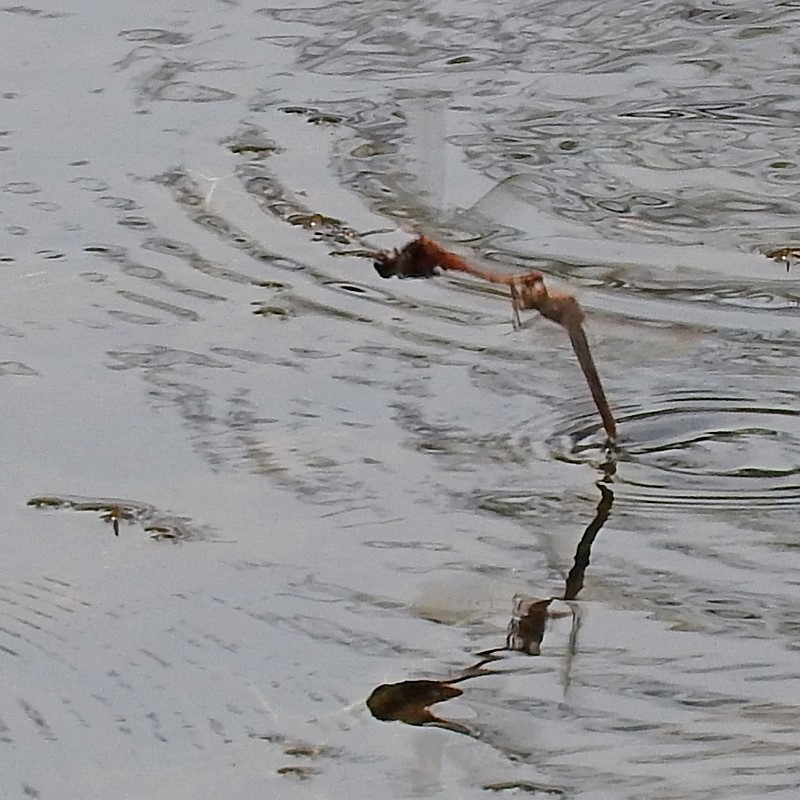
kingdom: Animalia
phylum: Arthropoda
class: Insecta
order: Odonata
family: Libellulidae
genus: Diplacodes
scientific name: Diplacodes melanopsis
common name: Black-faced percher
